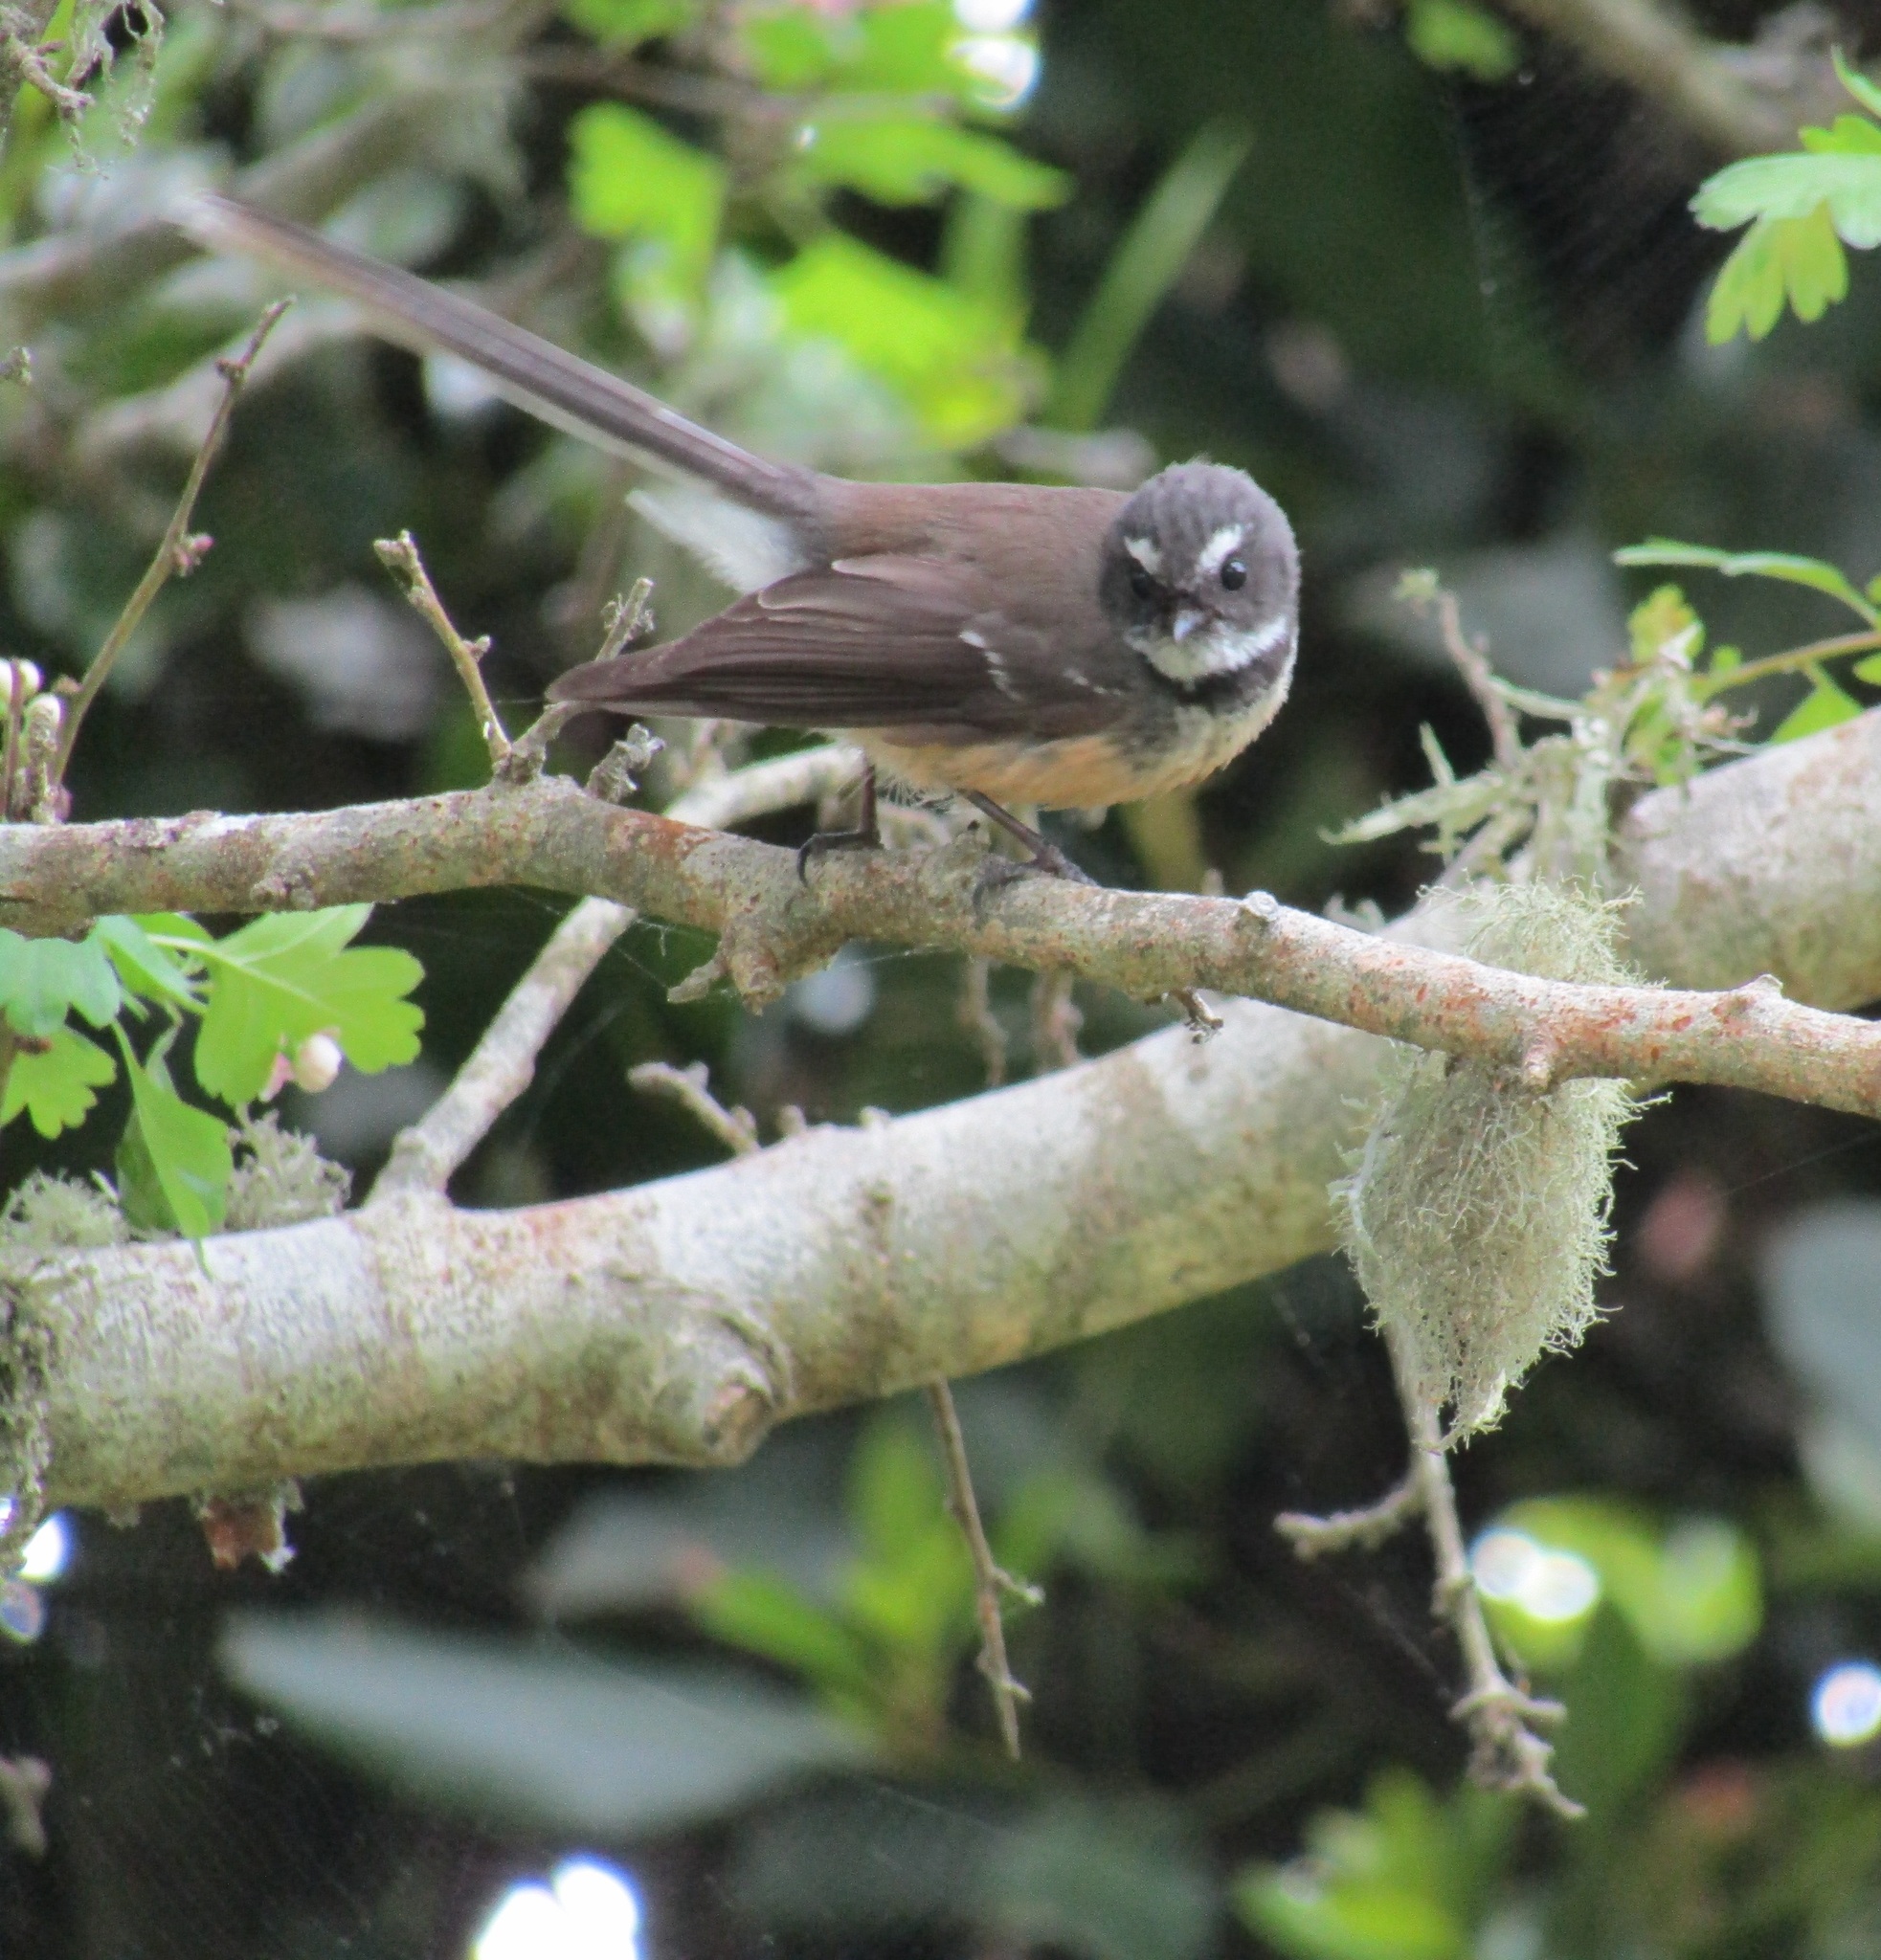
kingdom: Animalia
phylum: Chordata
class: Aves
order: Passeriformes
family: Rhipiduridae
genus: Rhipidura
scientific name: Rhipidura fuliginosa
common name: New zealand fantail
